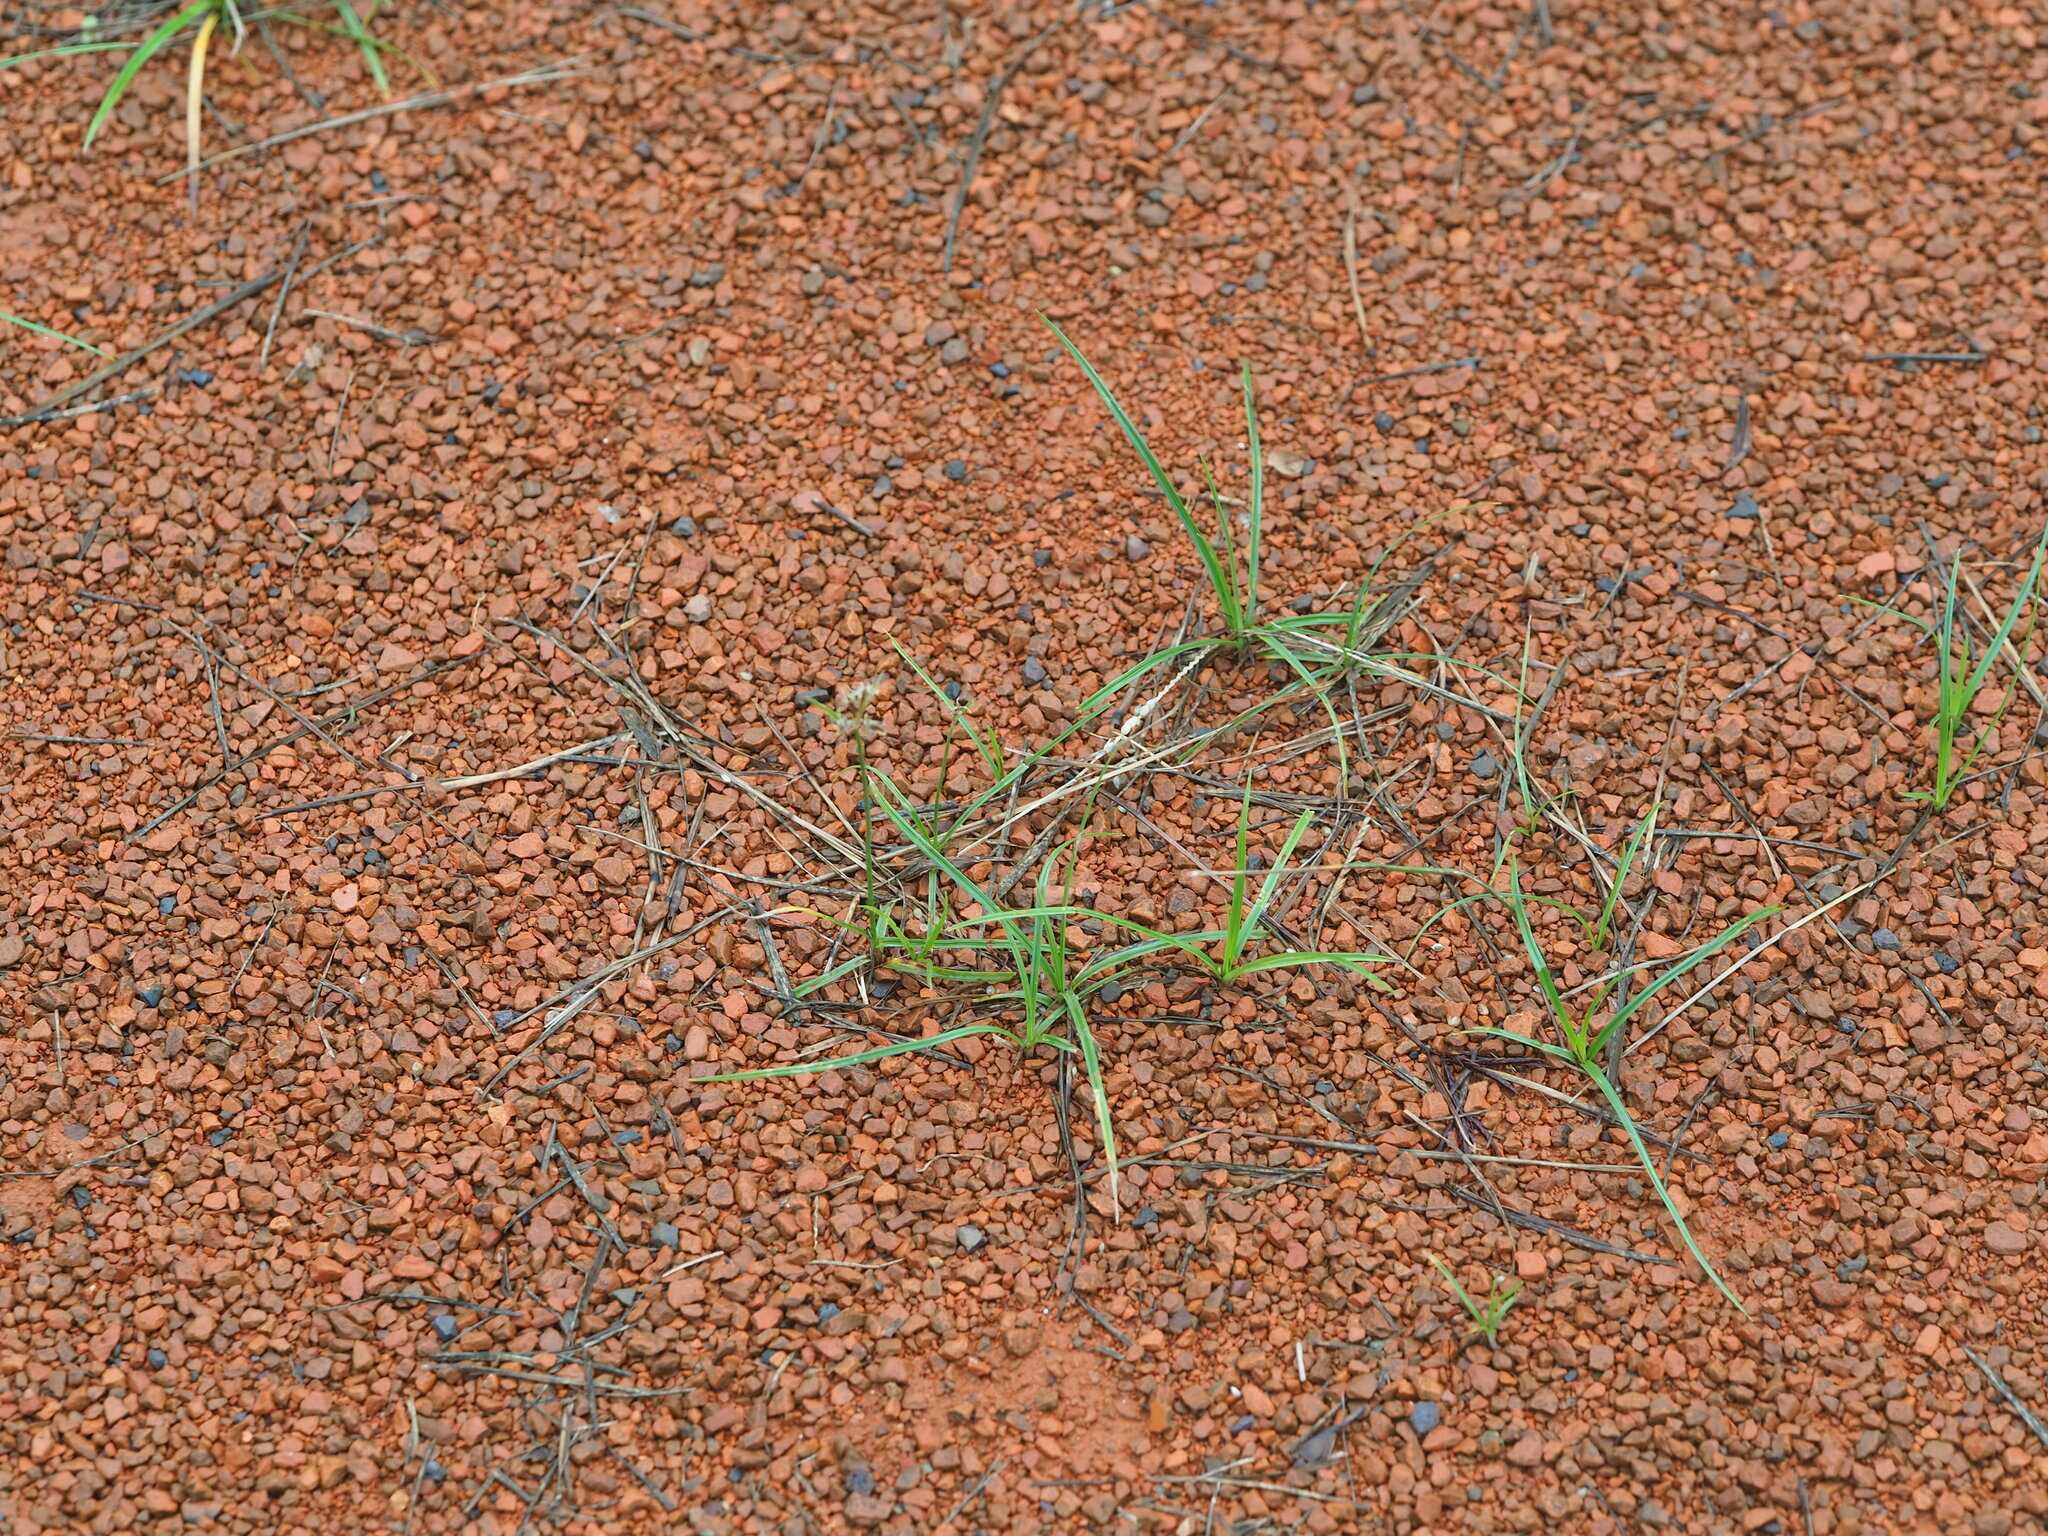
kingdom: Plantae
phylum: Tracheophyta
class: Liliopsida
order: Poales
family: Cyperaceae
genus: Cyperus
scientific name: Cyperus rotundus
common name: Nutgrass
